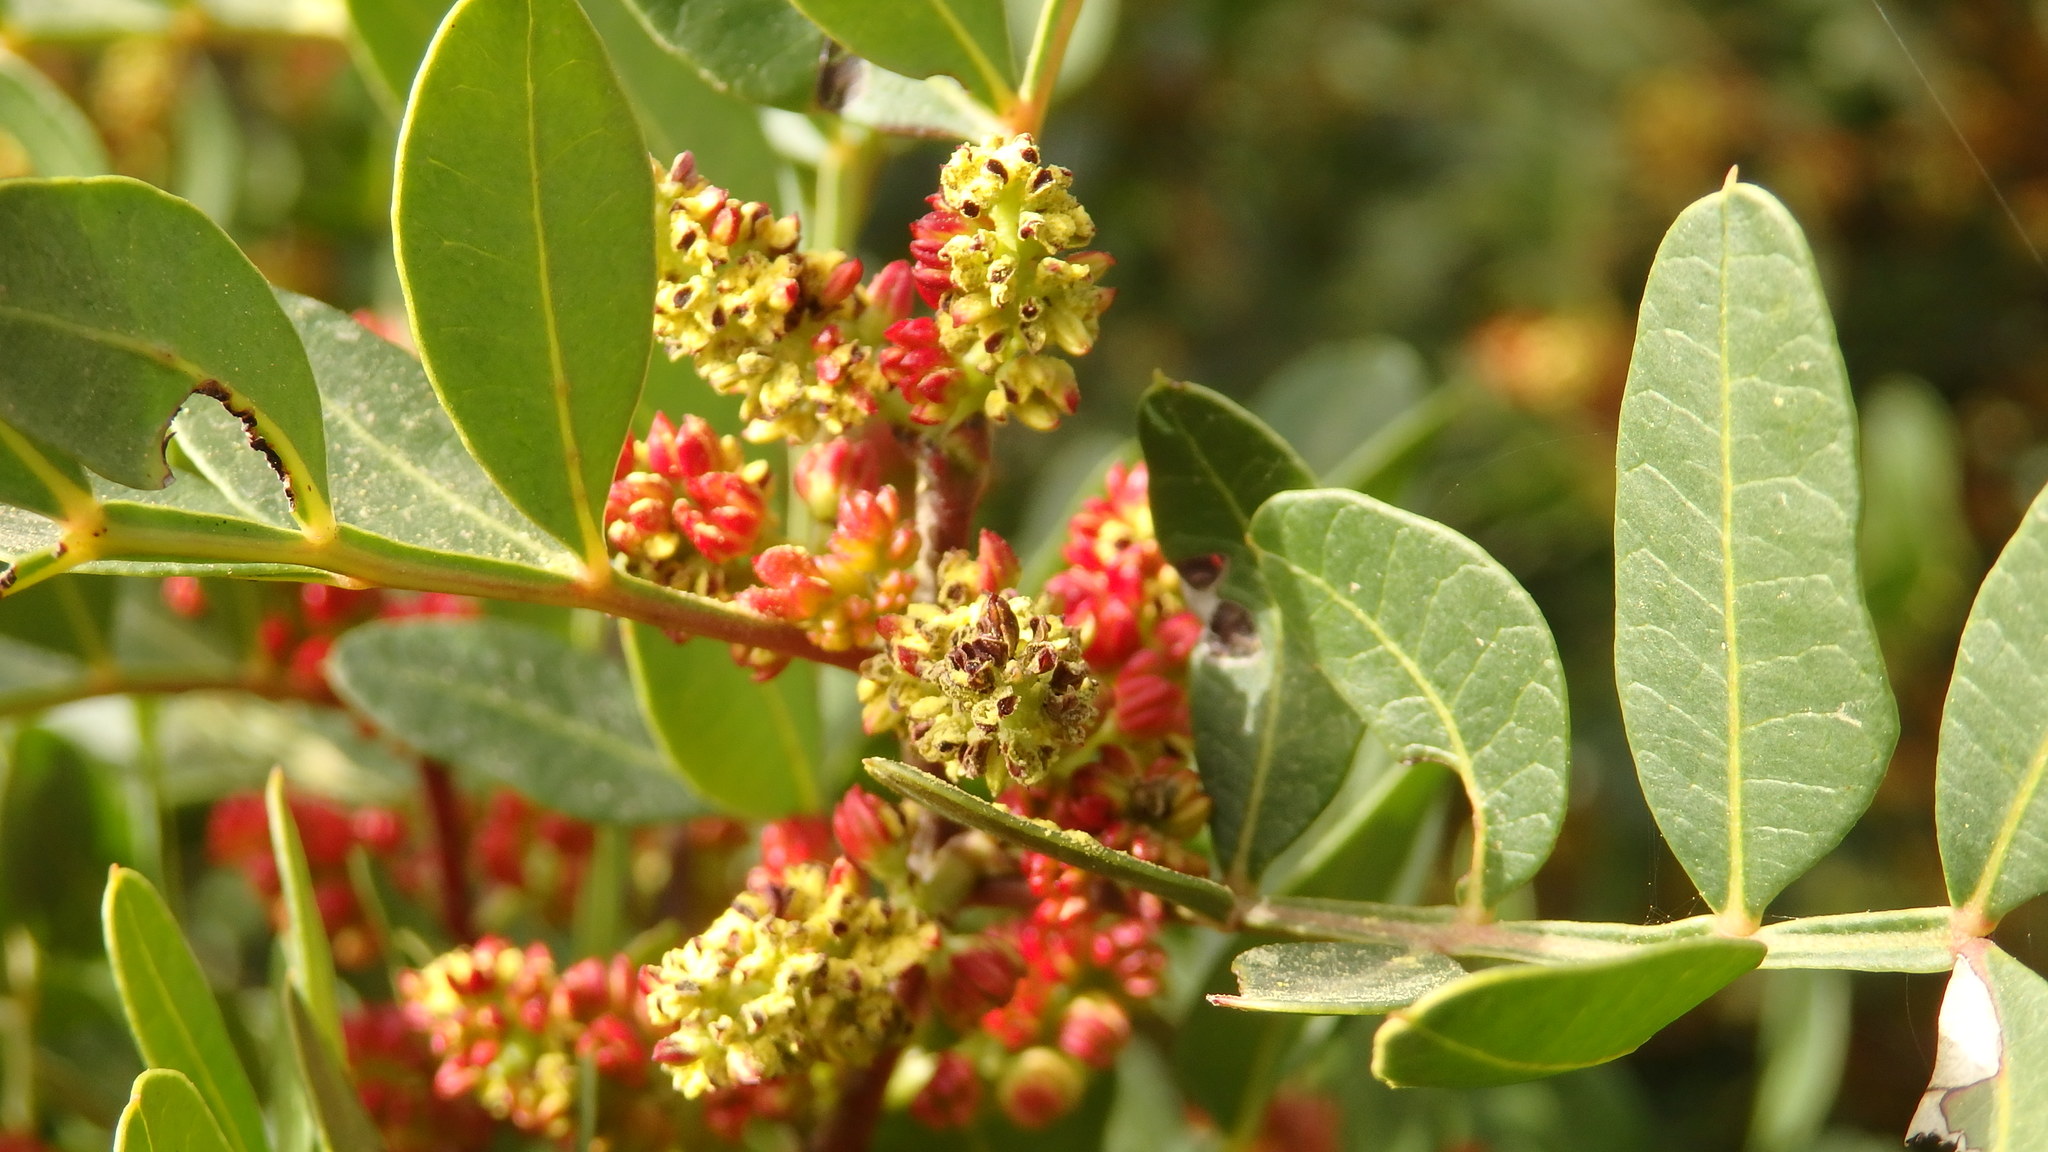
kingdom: Plantae
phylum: Tracheophyta
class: Magnoliopsida
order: Sapindales
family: Anacardiaceae
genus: Pistacia
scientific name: Pistacia lentiscus
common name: Lentisk
